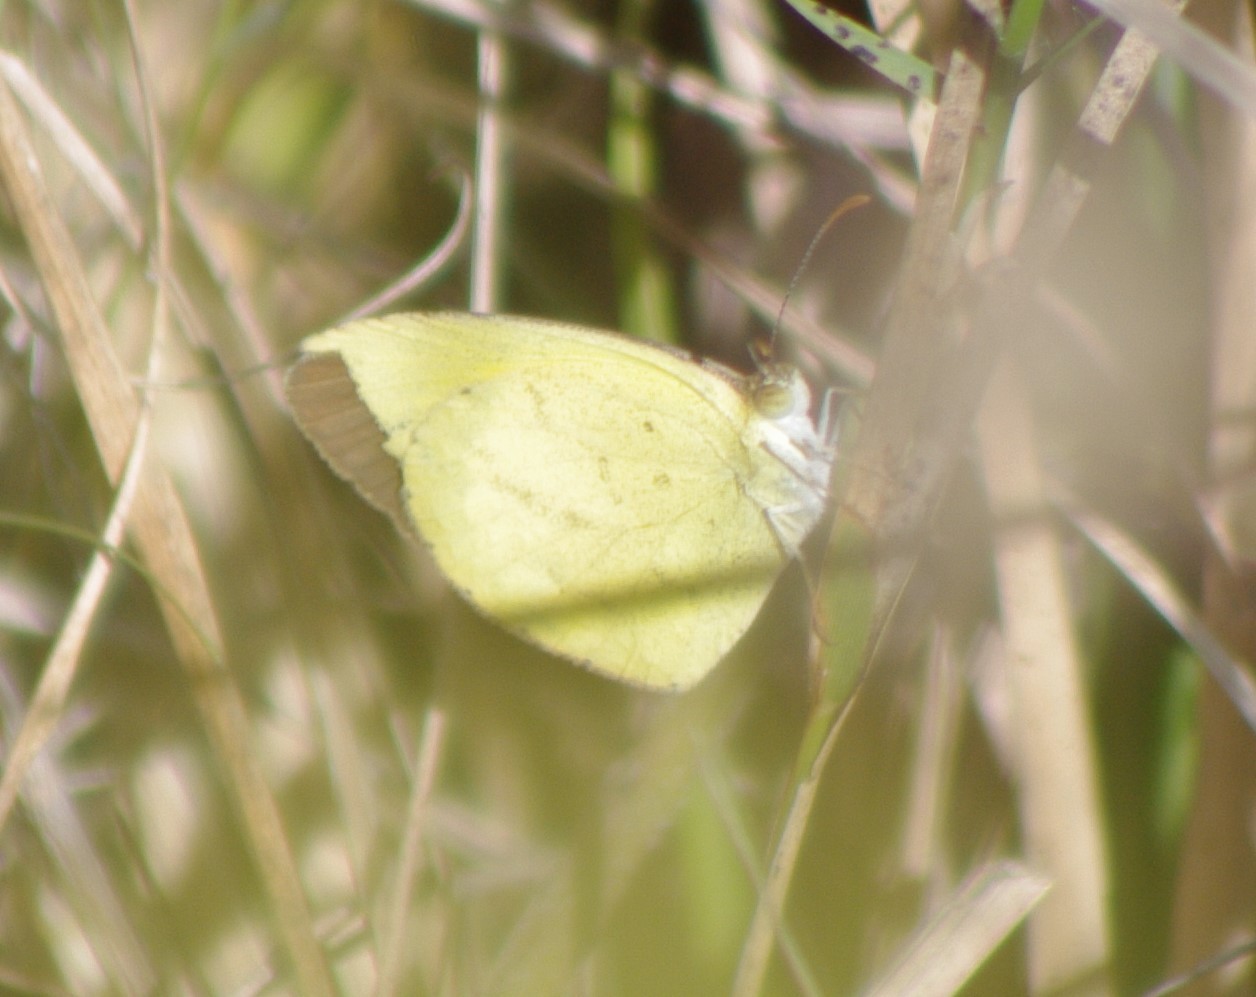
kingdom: Animalia
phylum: Arthropoda
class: Insecta
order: Lepidoptera
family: Pieridae
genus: Eurema
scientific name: Eurema brigitta
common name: Small grass yellow
